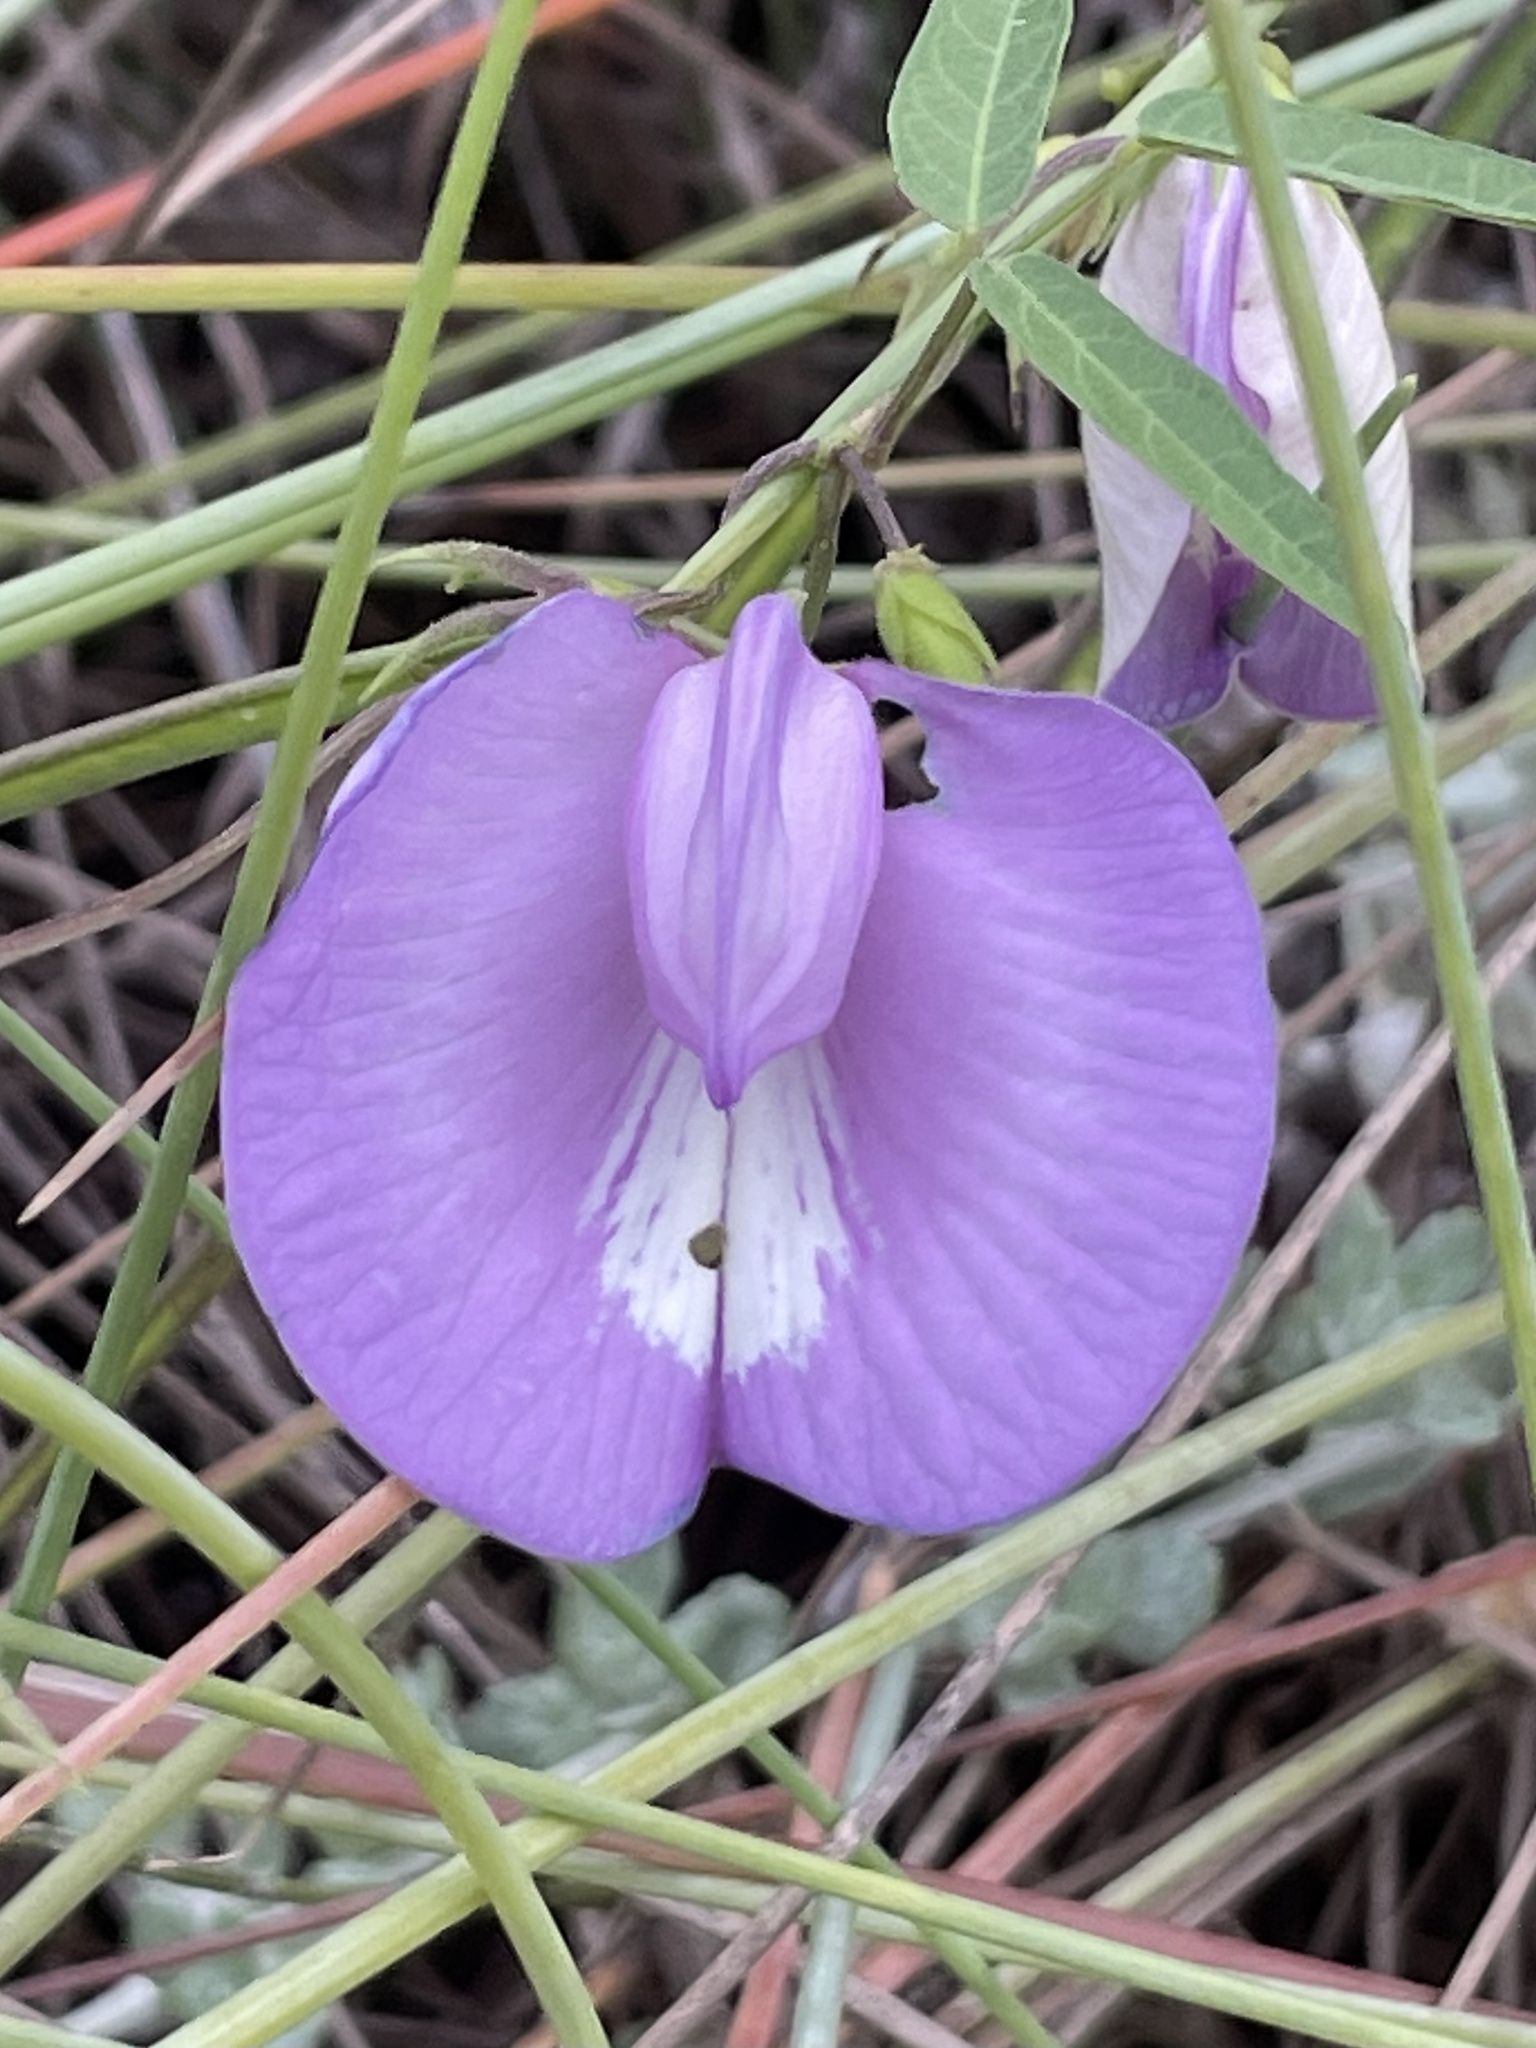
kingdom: Plantae
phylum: Tracheophyta
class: Magnoliopsida
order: Fabales
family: Fabaceae
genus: Centrosema
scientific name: Centrosema virginianum
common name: Butterfly-pea
